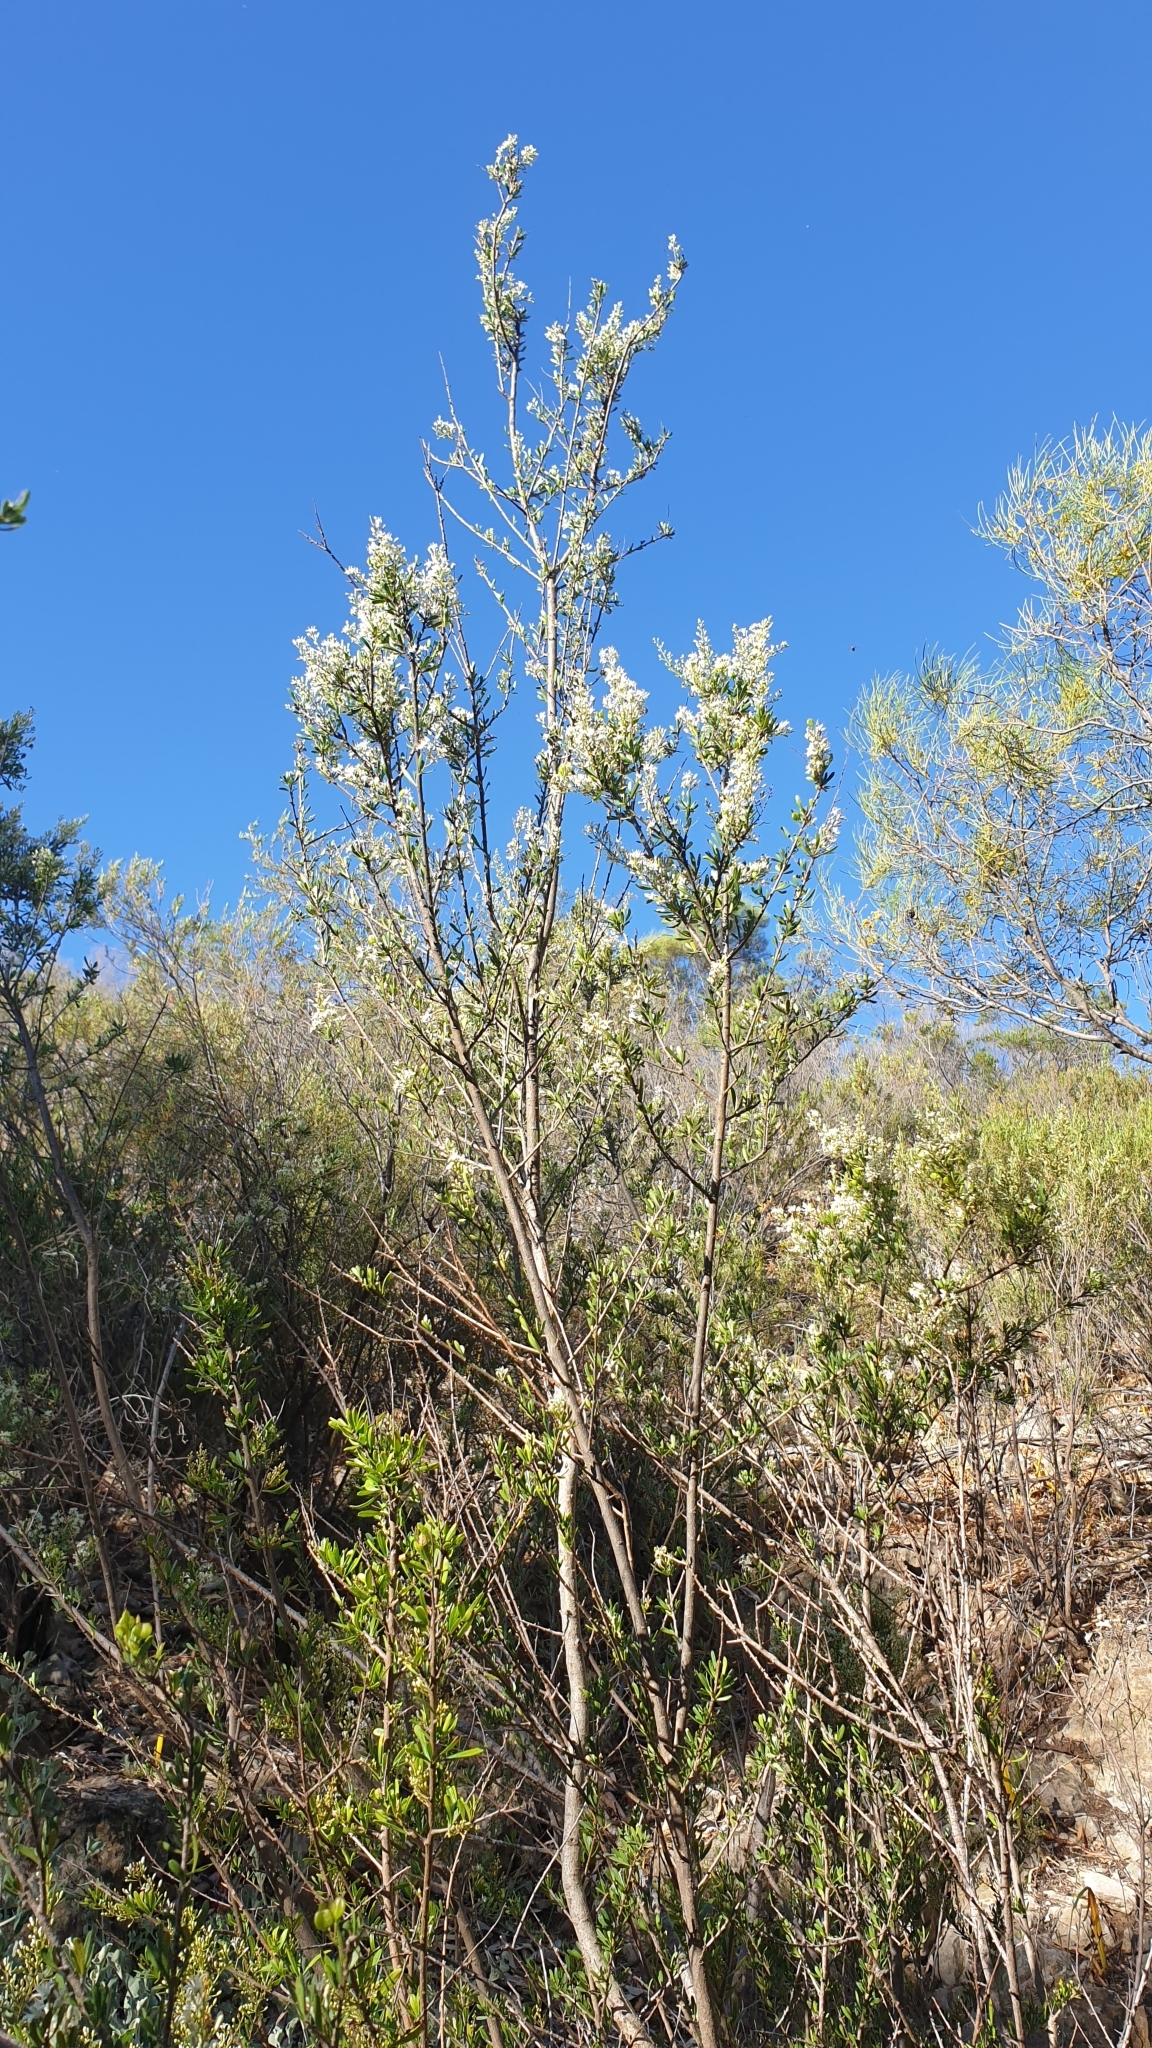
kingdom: Plantae
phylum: Tracheophyta
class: Magnoliopsida
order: Apiales
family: Pittosporaceae
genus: Bursaria
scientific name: Bursaria spinosa
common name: Australian blackthorn
